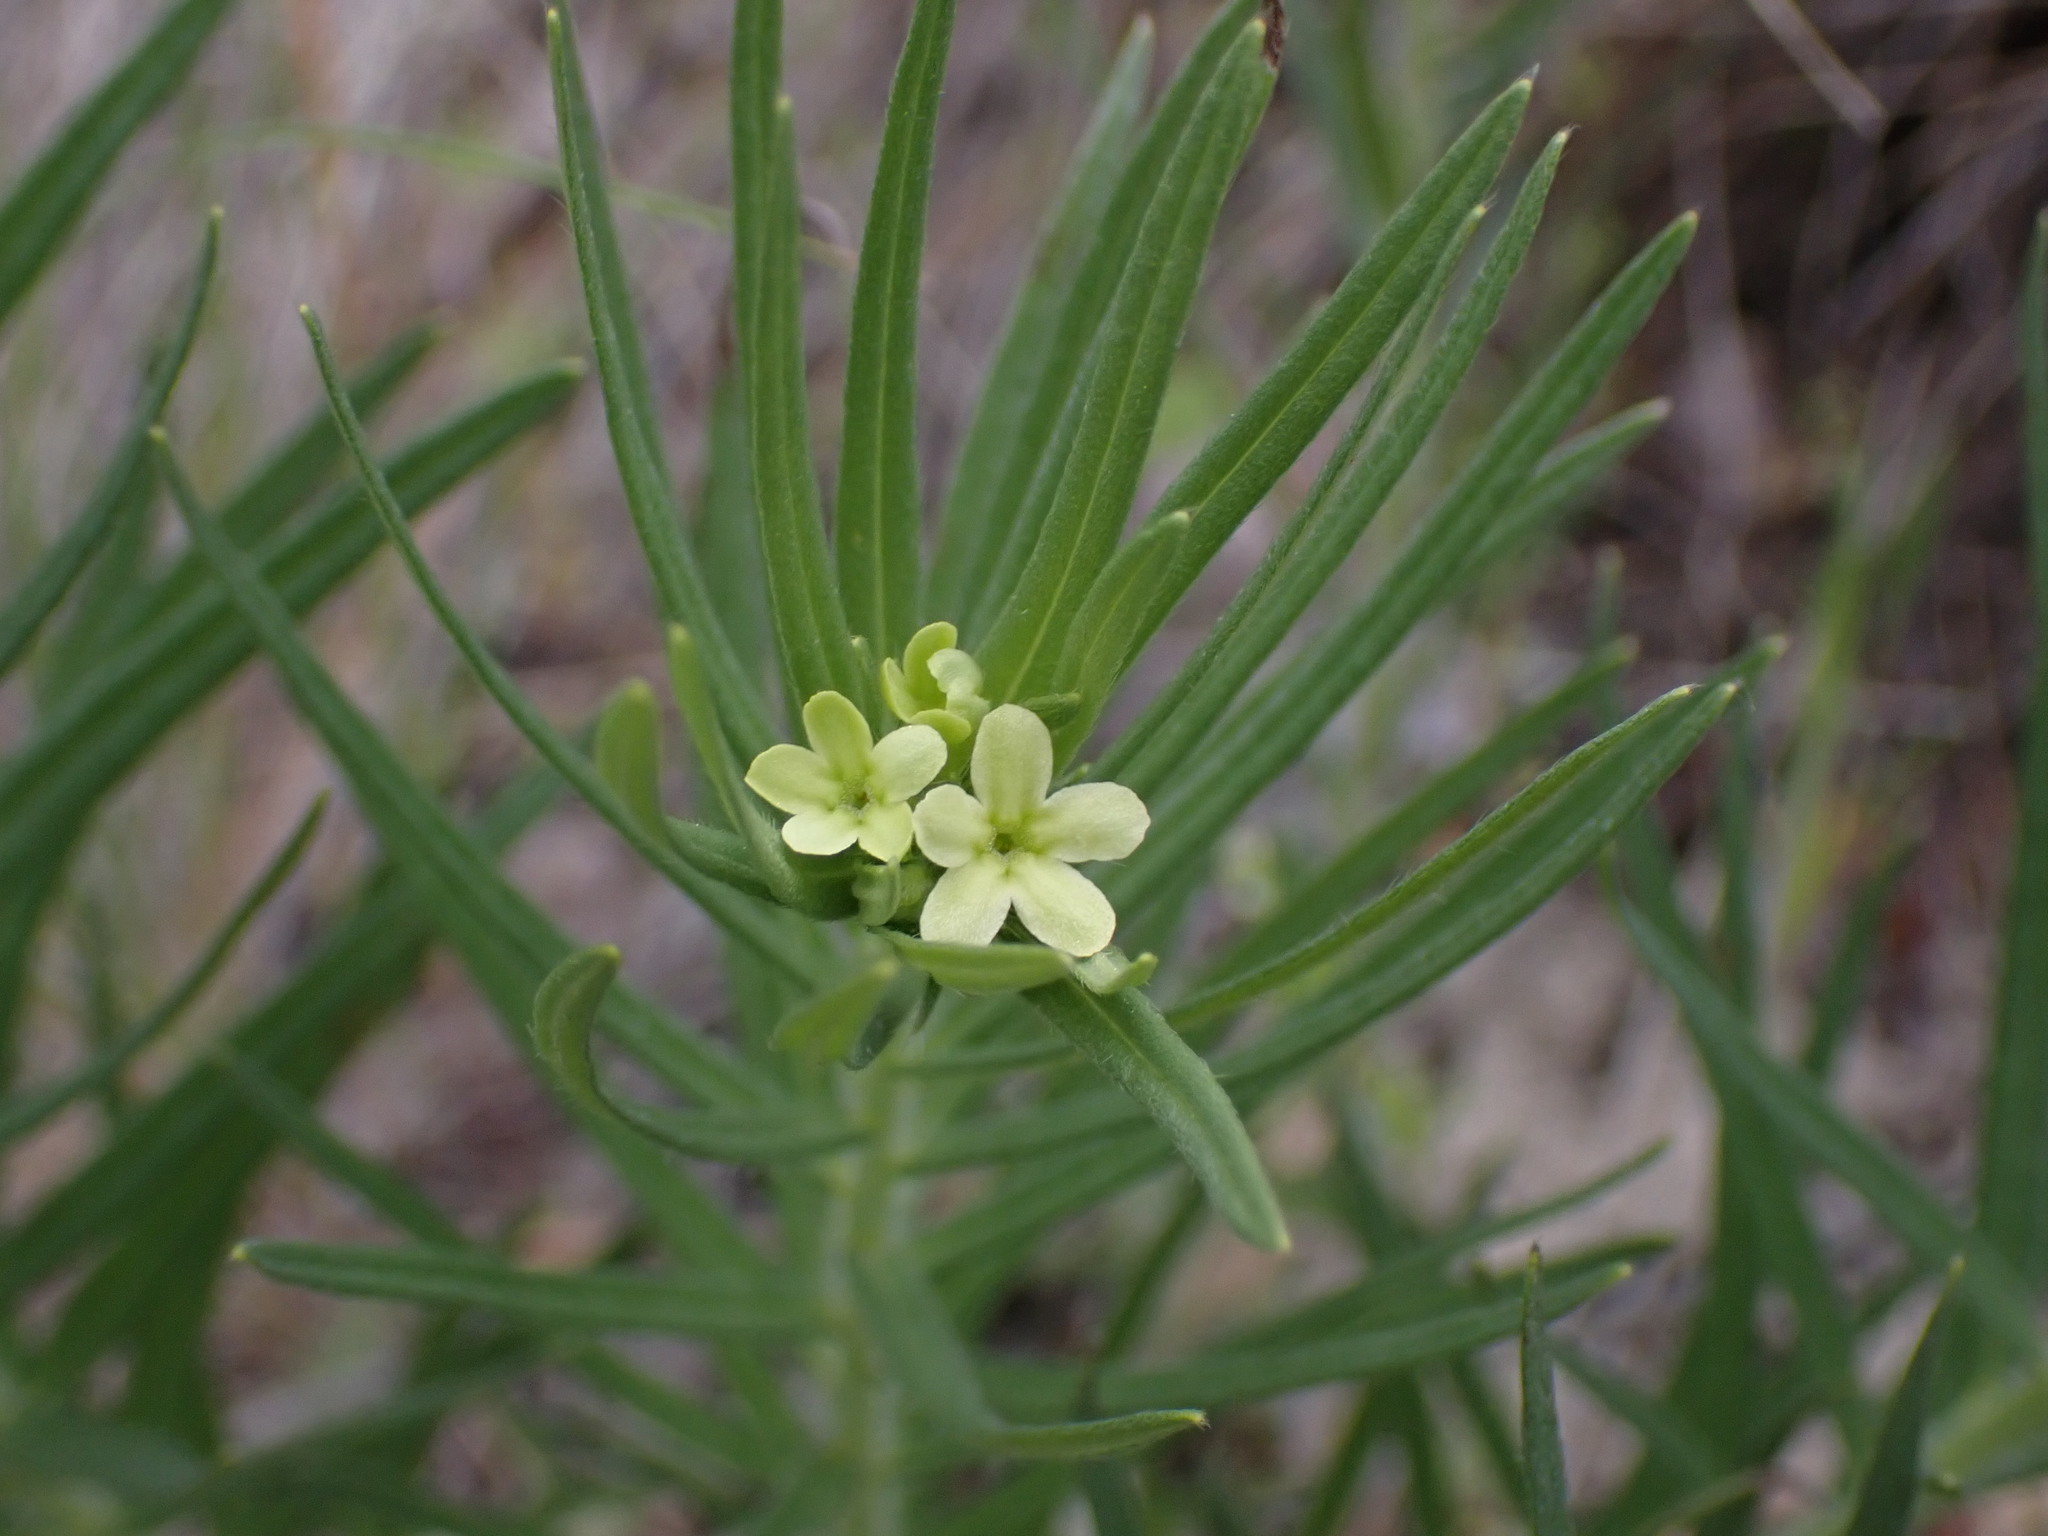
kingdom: Plantae
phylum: Tracheophyta
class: Magnoliopsida
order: Boraginales
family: Boraginaceae
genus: Lithospermum
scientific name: Lithospermum ruderale
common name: Western gromwell
